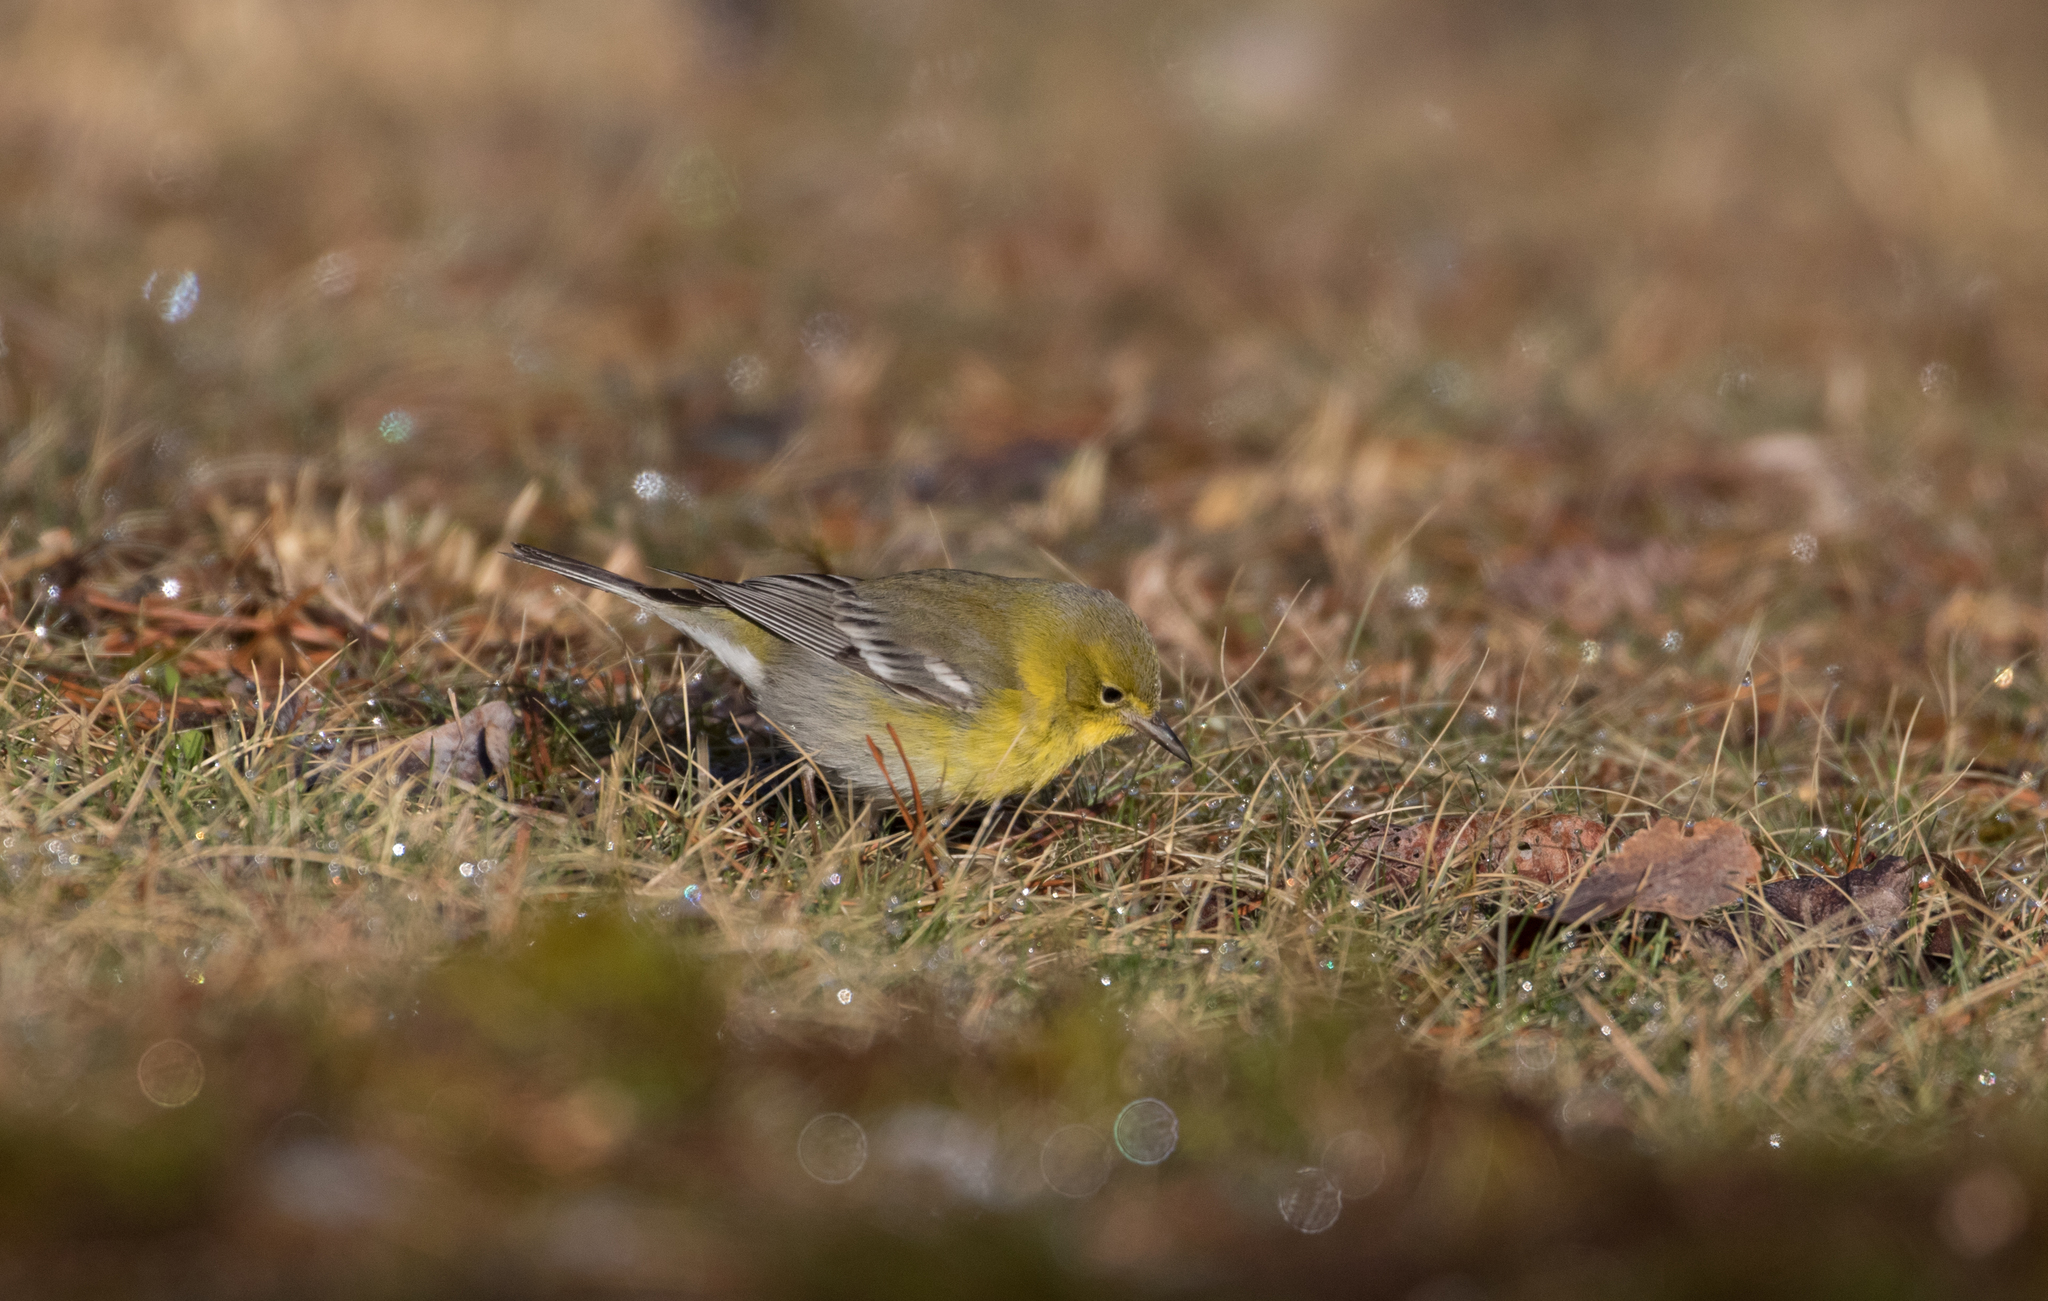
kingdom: Animalia
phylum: Chordata
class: Aves
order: Passeriformes
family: Parulidae
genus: Setophaga
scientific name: Setophaga pinus
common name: Pine warbler
